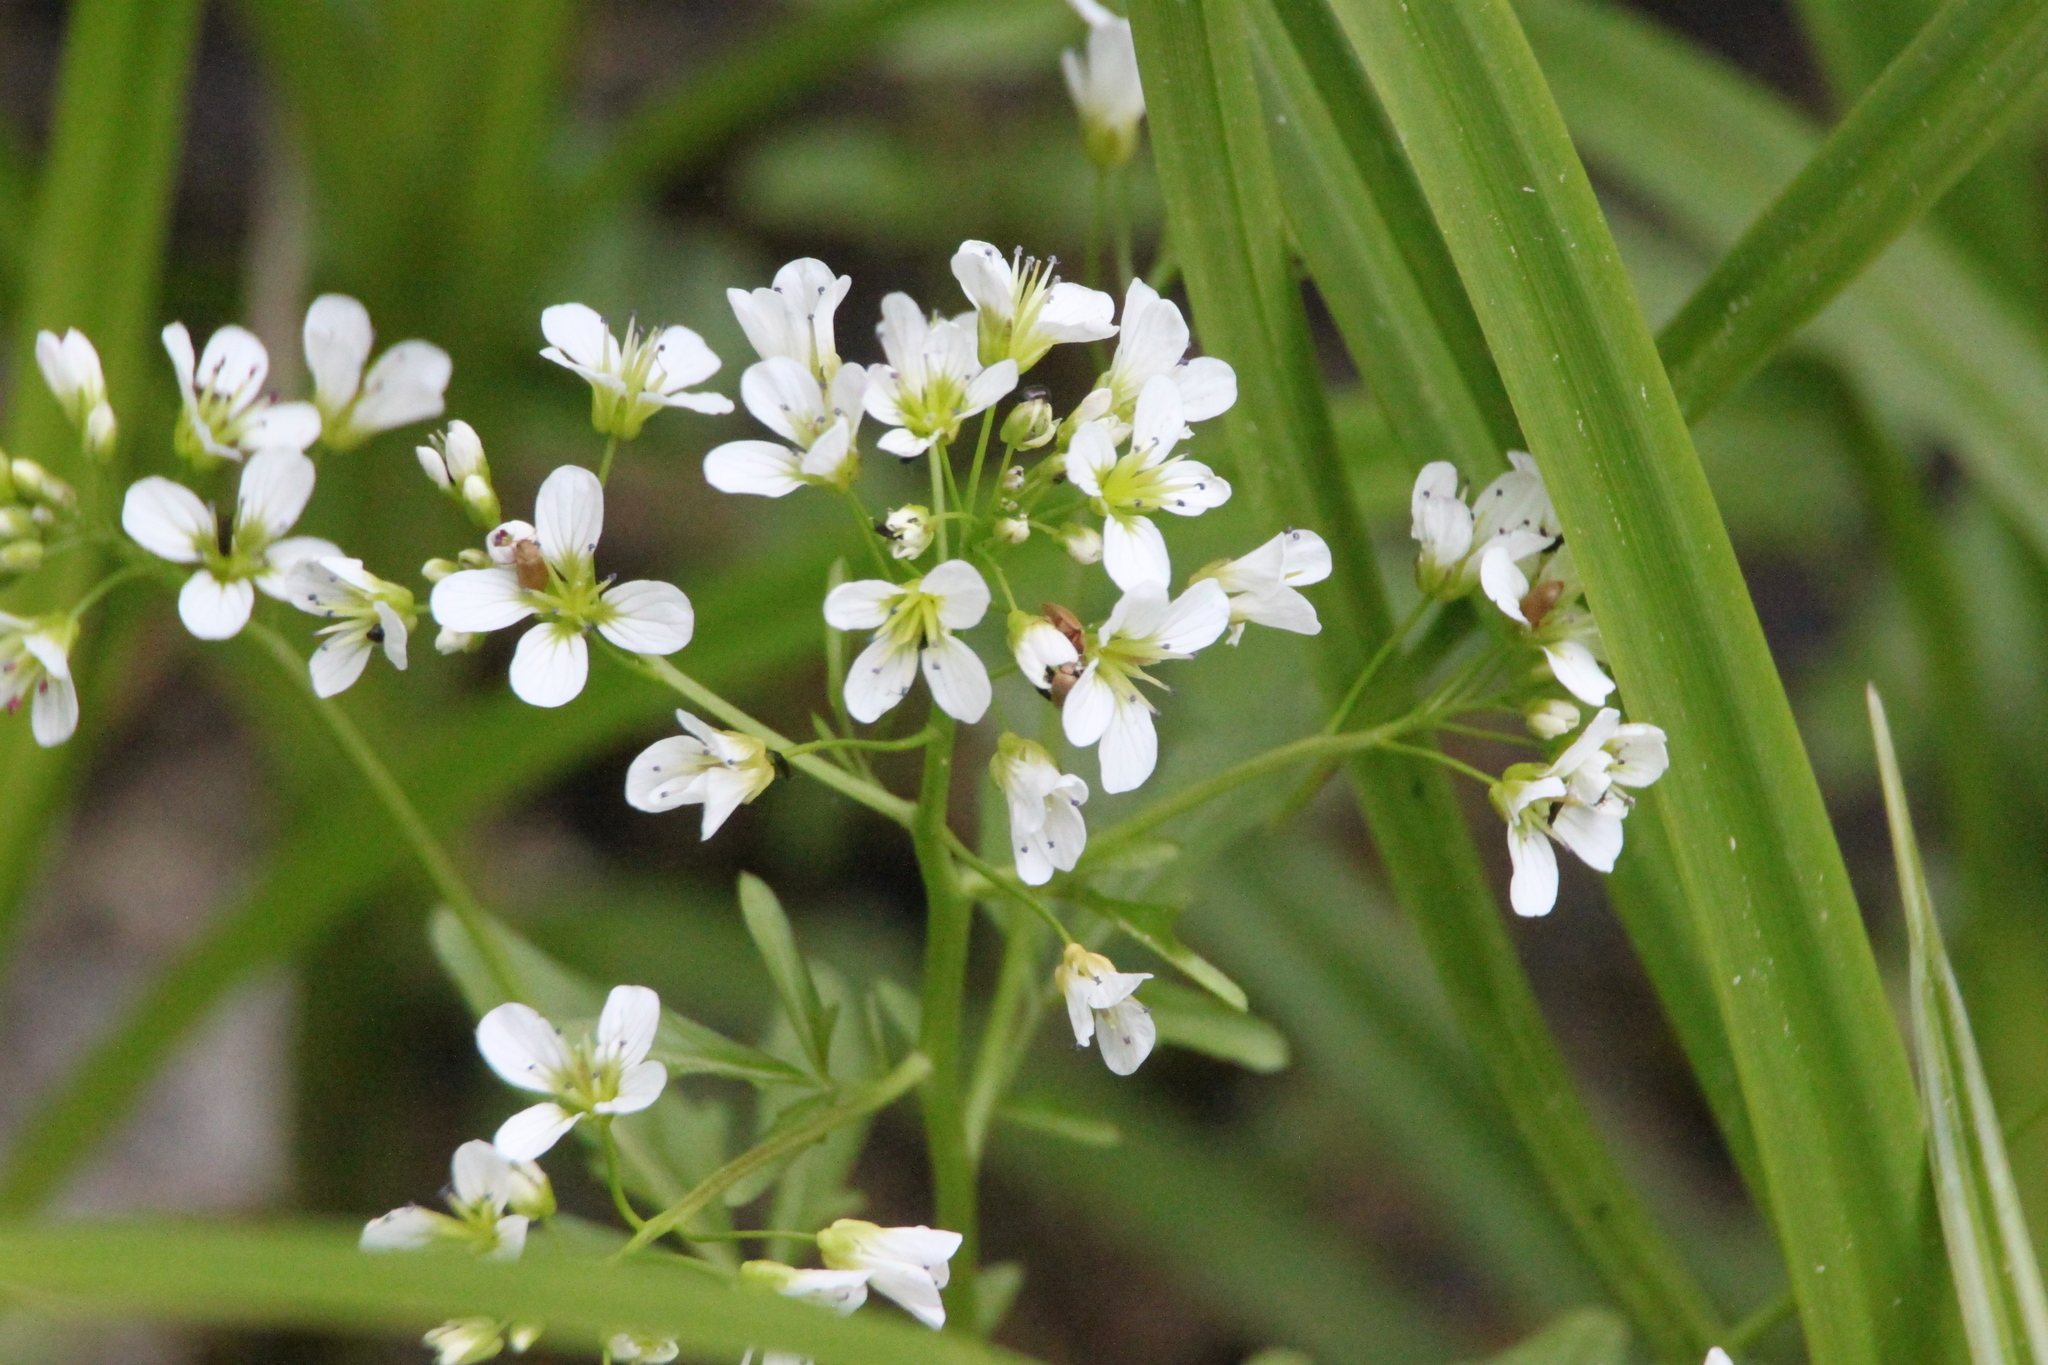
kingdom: Plantae
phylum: Tracheophyta
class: Magnoliopsida
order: Brassicales
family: Brassicaceae
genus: Cardamine
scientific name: Cardamine amara
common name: Large bitter-cress
